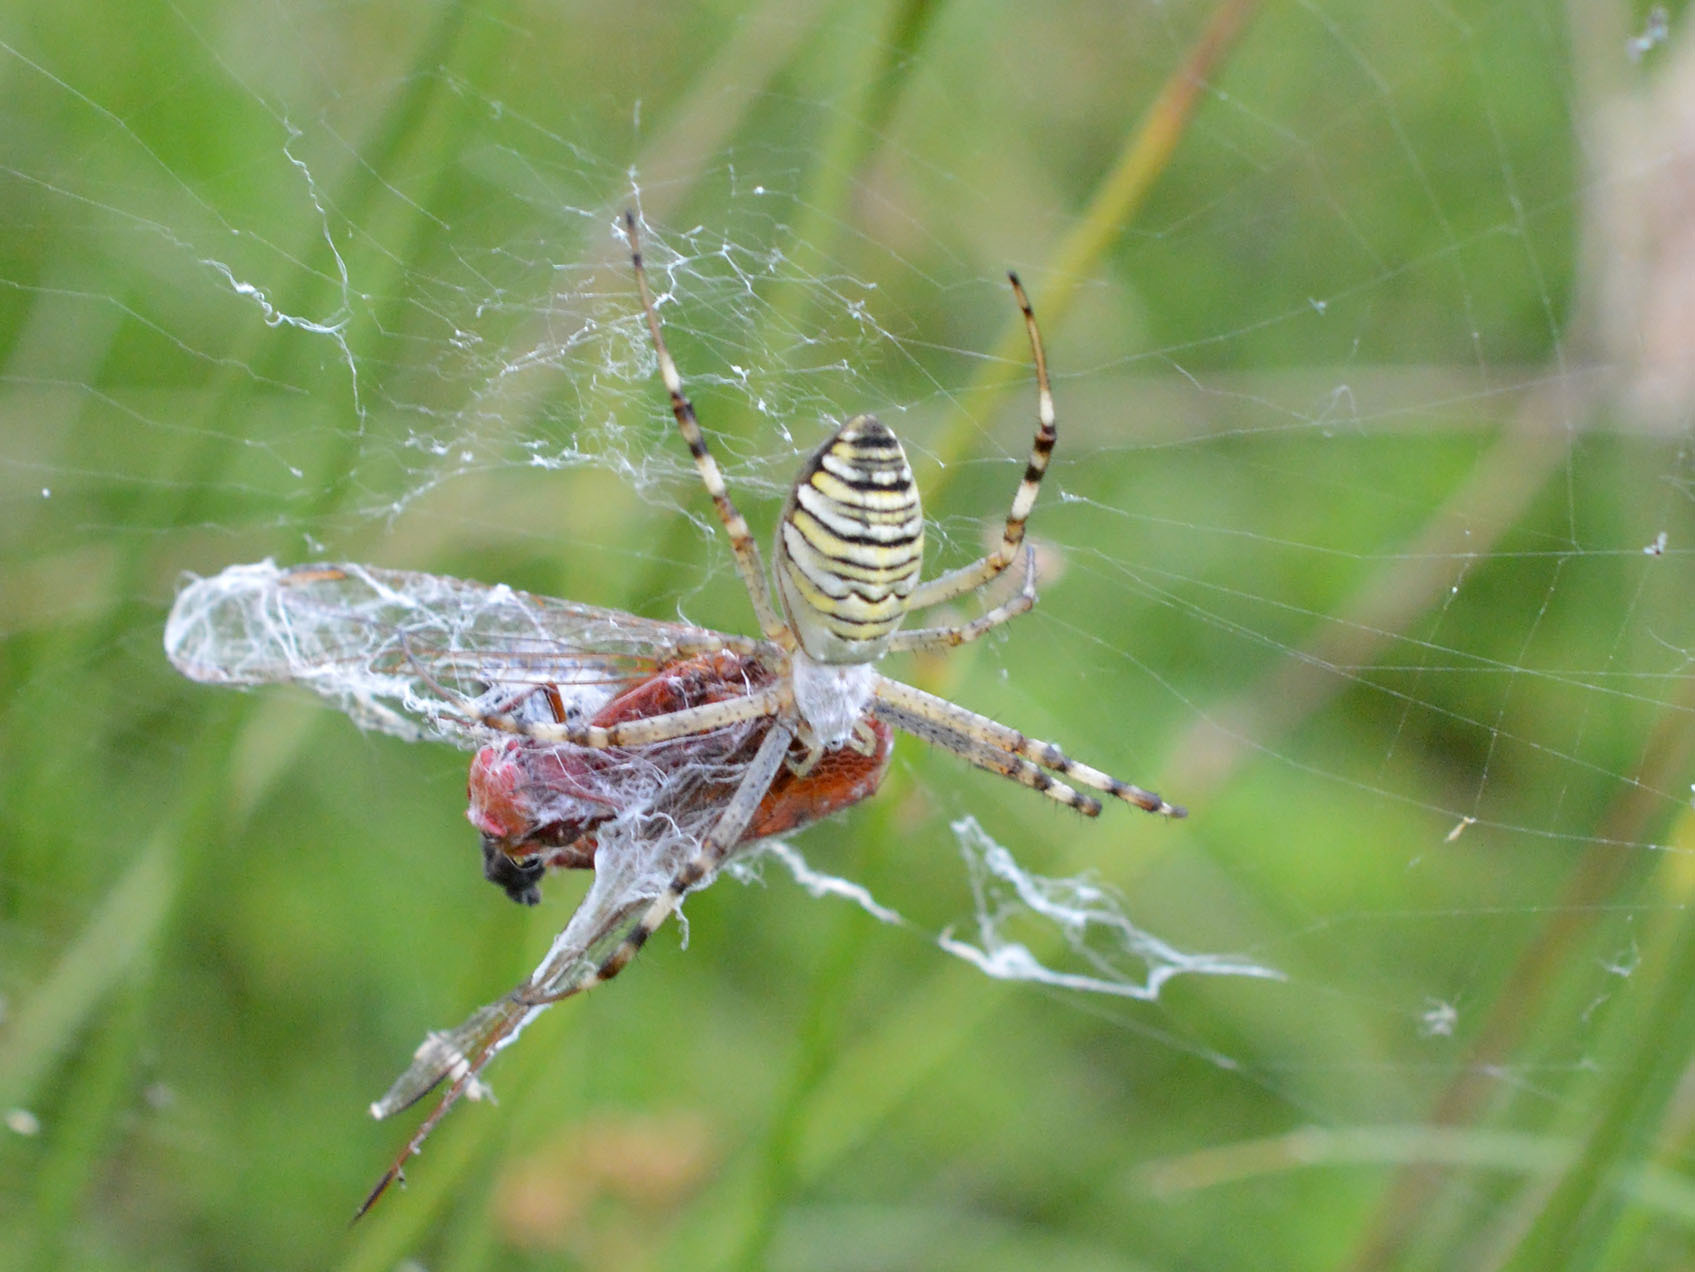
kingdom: Animalia
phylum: Arthropoda
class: Insecta
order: Odonata
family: Libellulidae
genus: Crocothemis
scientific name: Crocothemis erythraea
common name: Scarlet dragonfly
